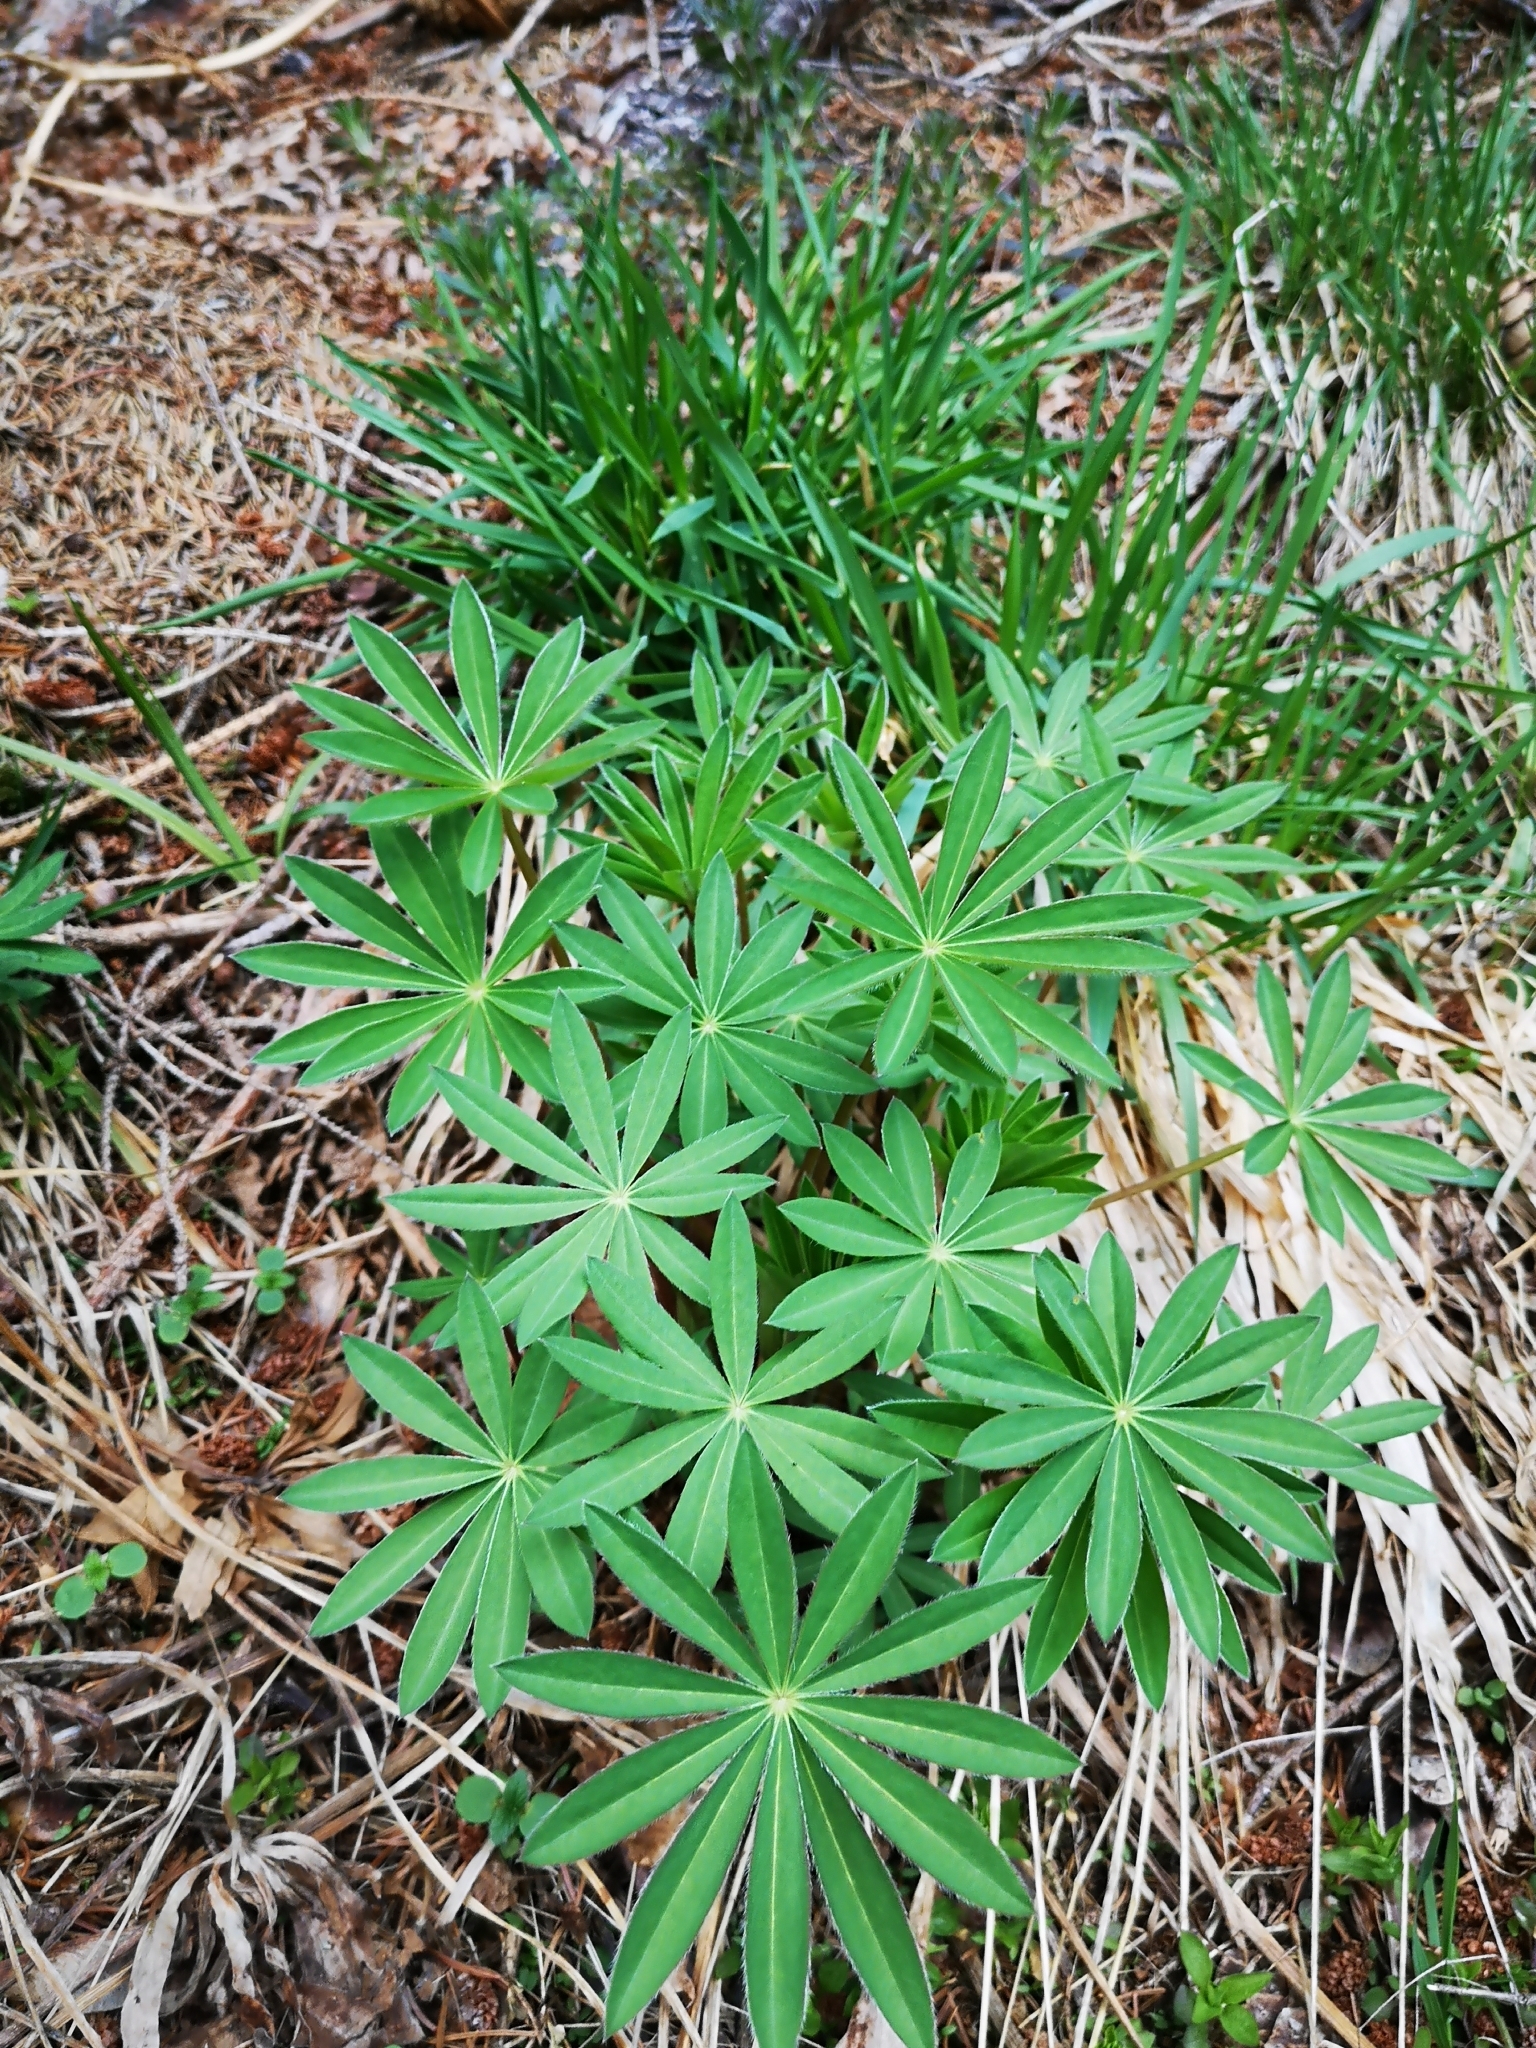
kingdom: Plantae
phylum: Tracheophyta
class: Magnoliopsida
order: Fabales
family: Fabaceae
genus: Lupinus
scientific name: Lupinus polyphyllus
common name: Garden lupin
